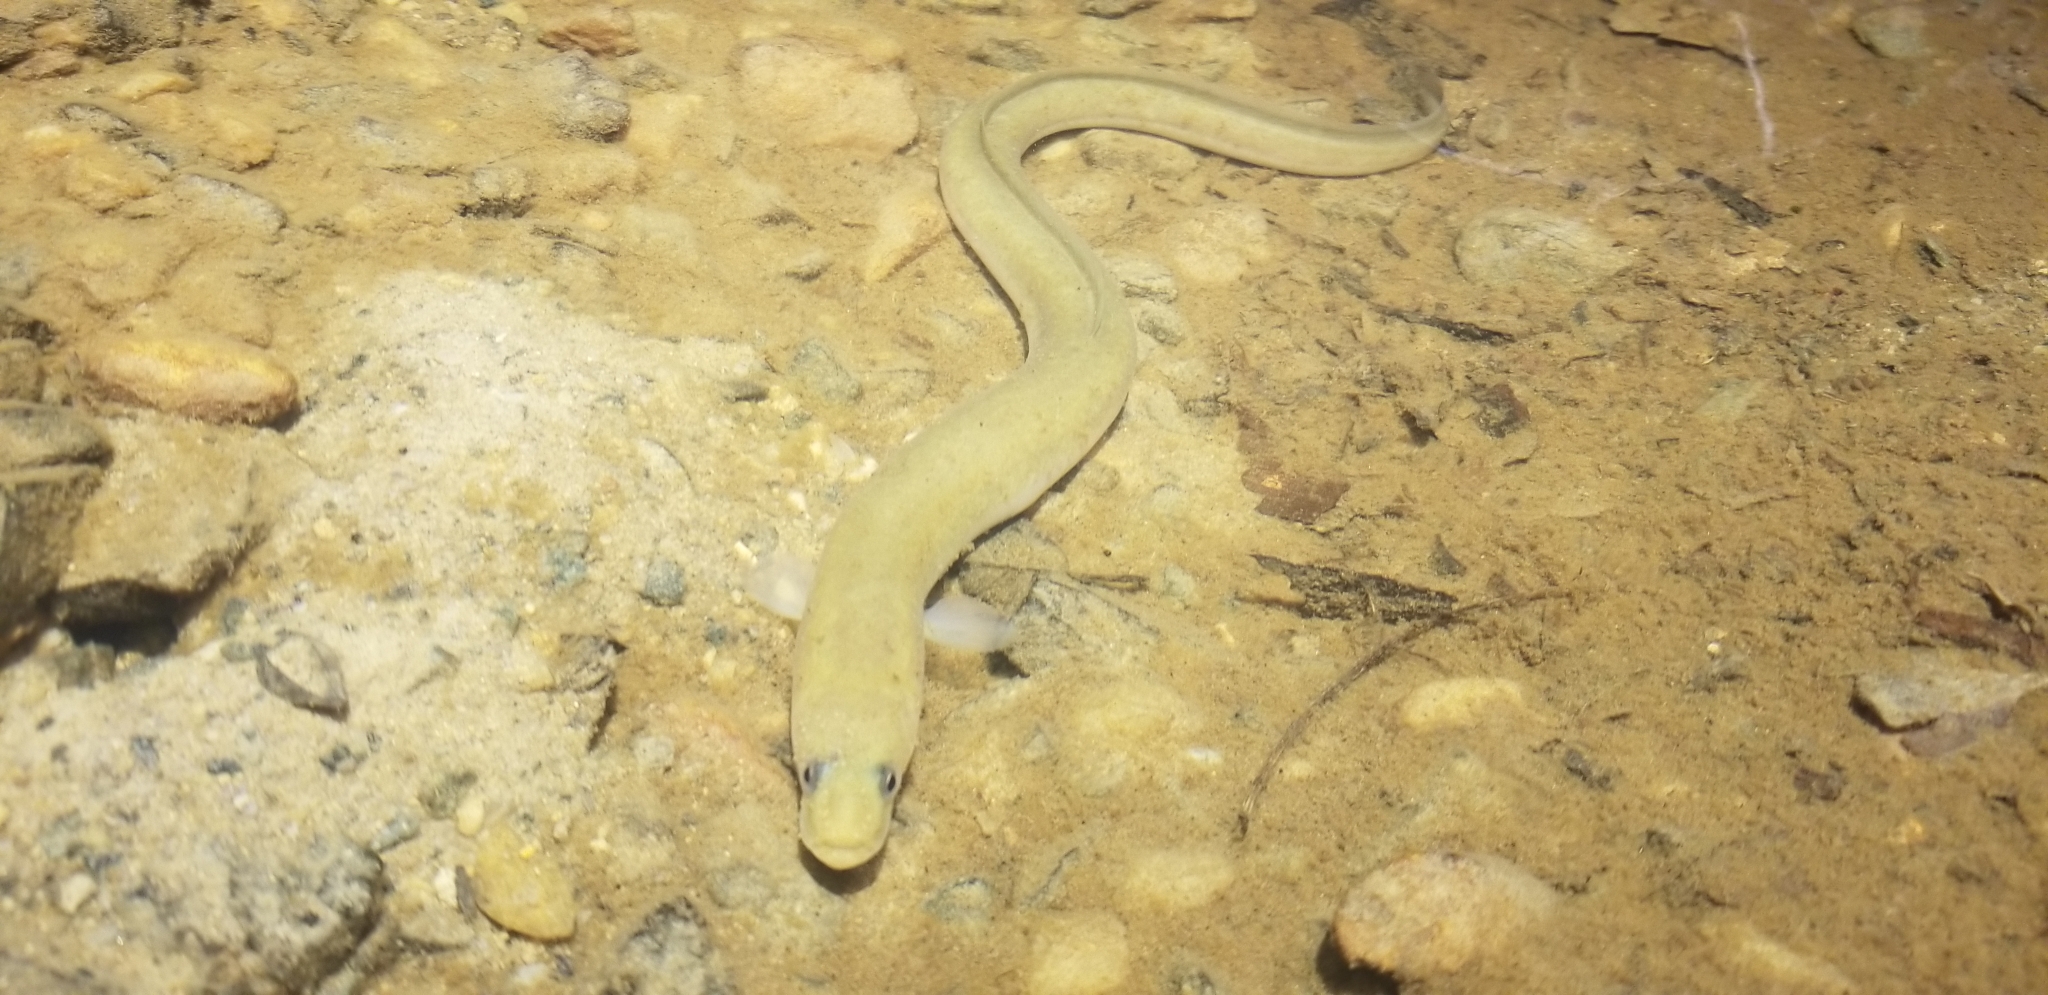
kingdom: Animalia
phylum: Chordata
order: Anguilliformes
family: Anguillidae
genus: Anguilla
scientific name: Anguilla rostrata
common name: American eel
